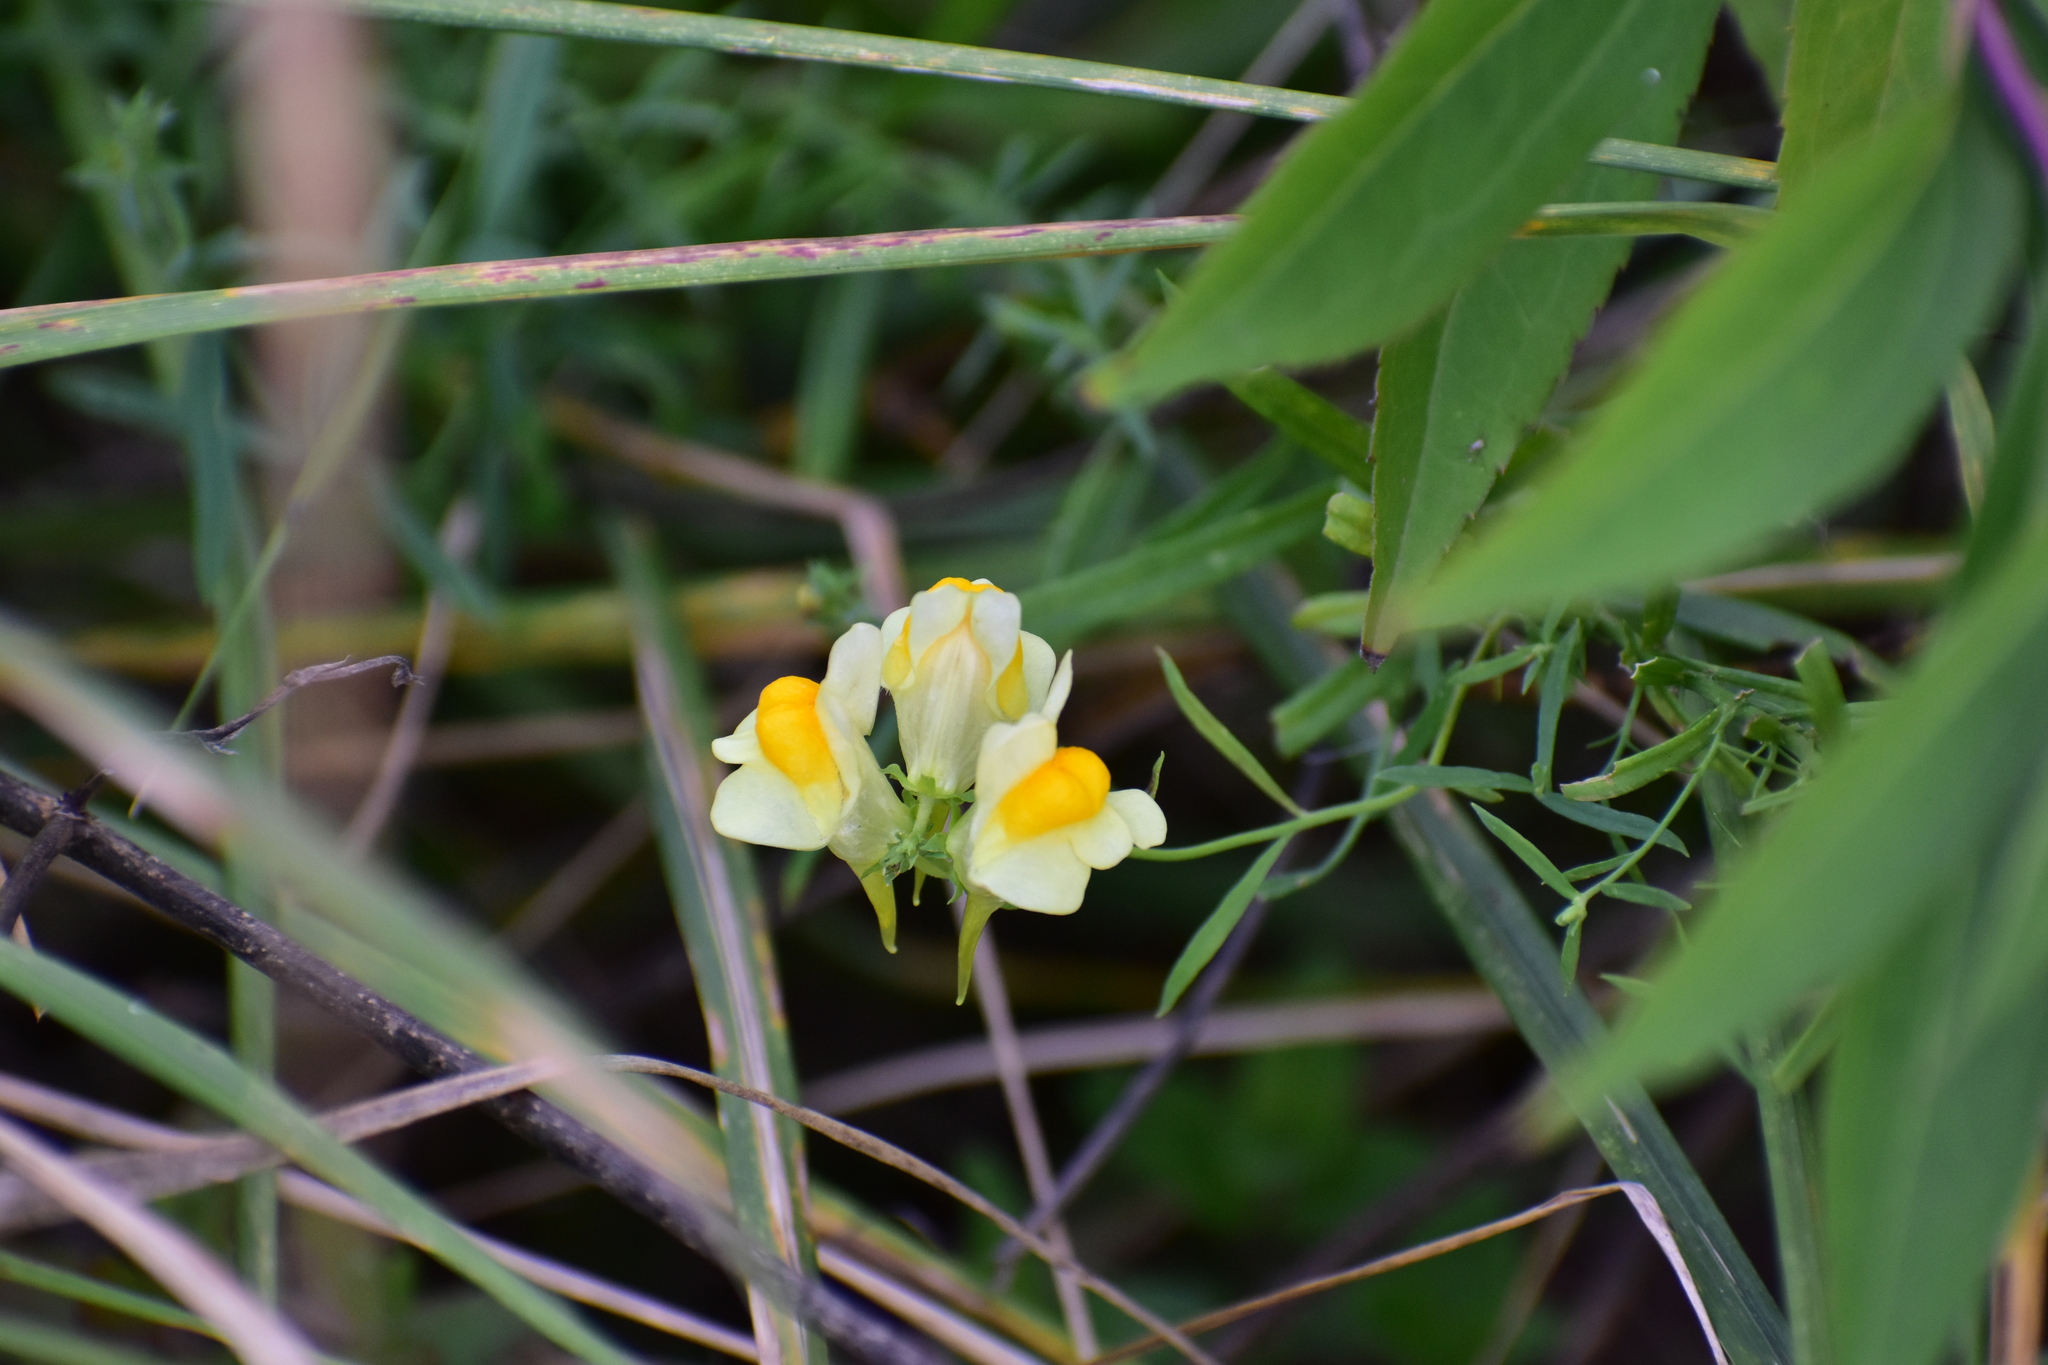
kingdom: Plantae
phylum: Tracheophyta
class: Magnoliopsida
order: Lamiales
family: Plantaginaceae
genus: Linaria
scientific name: Linaria vulgaris
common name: Butter and eggs
